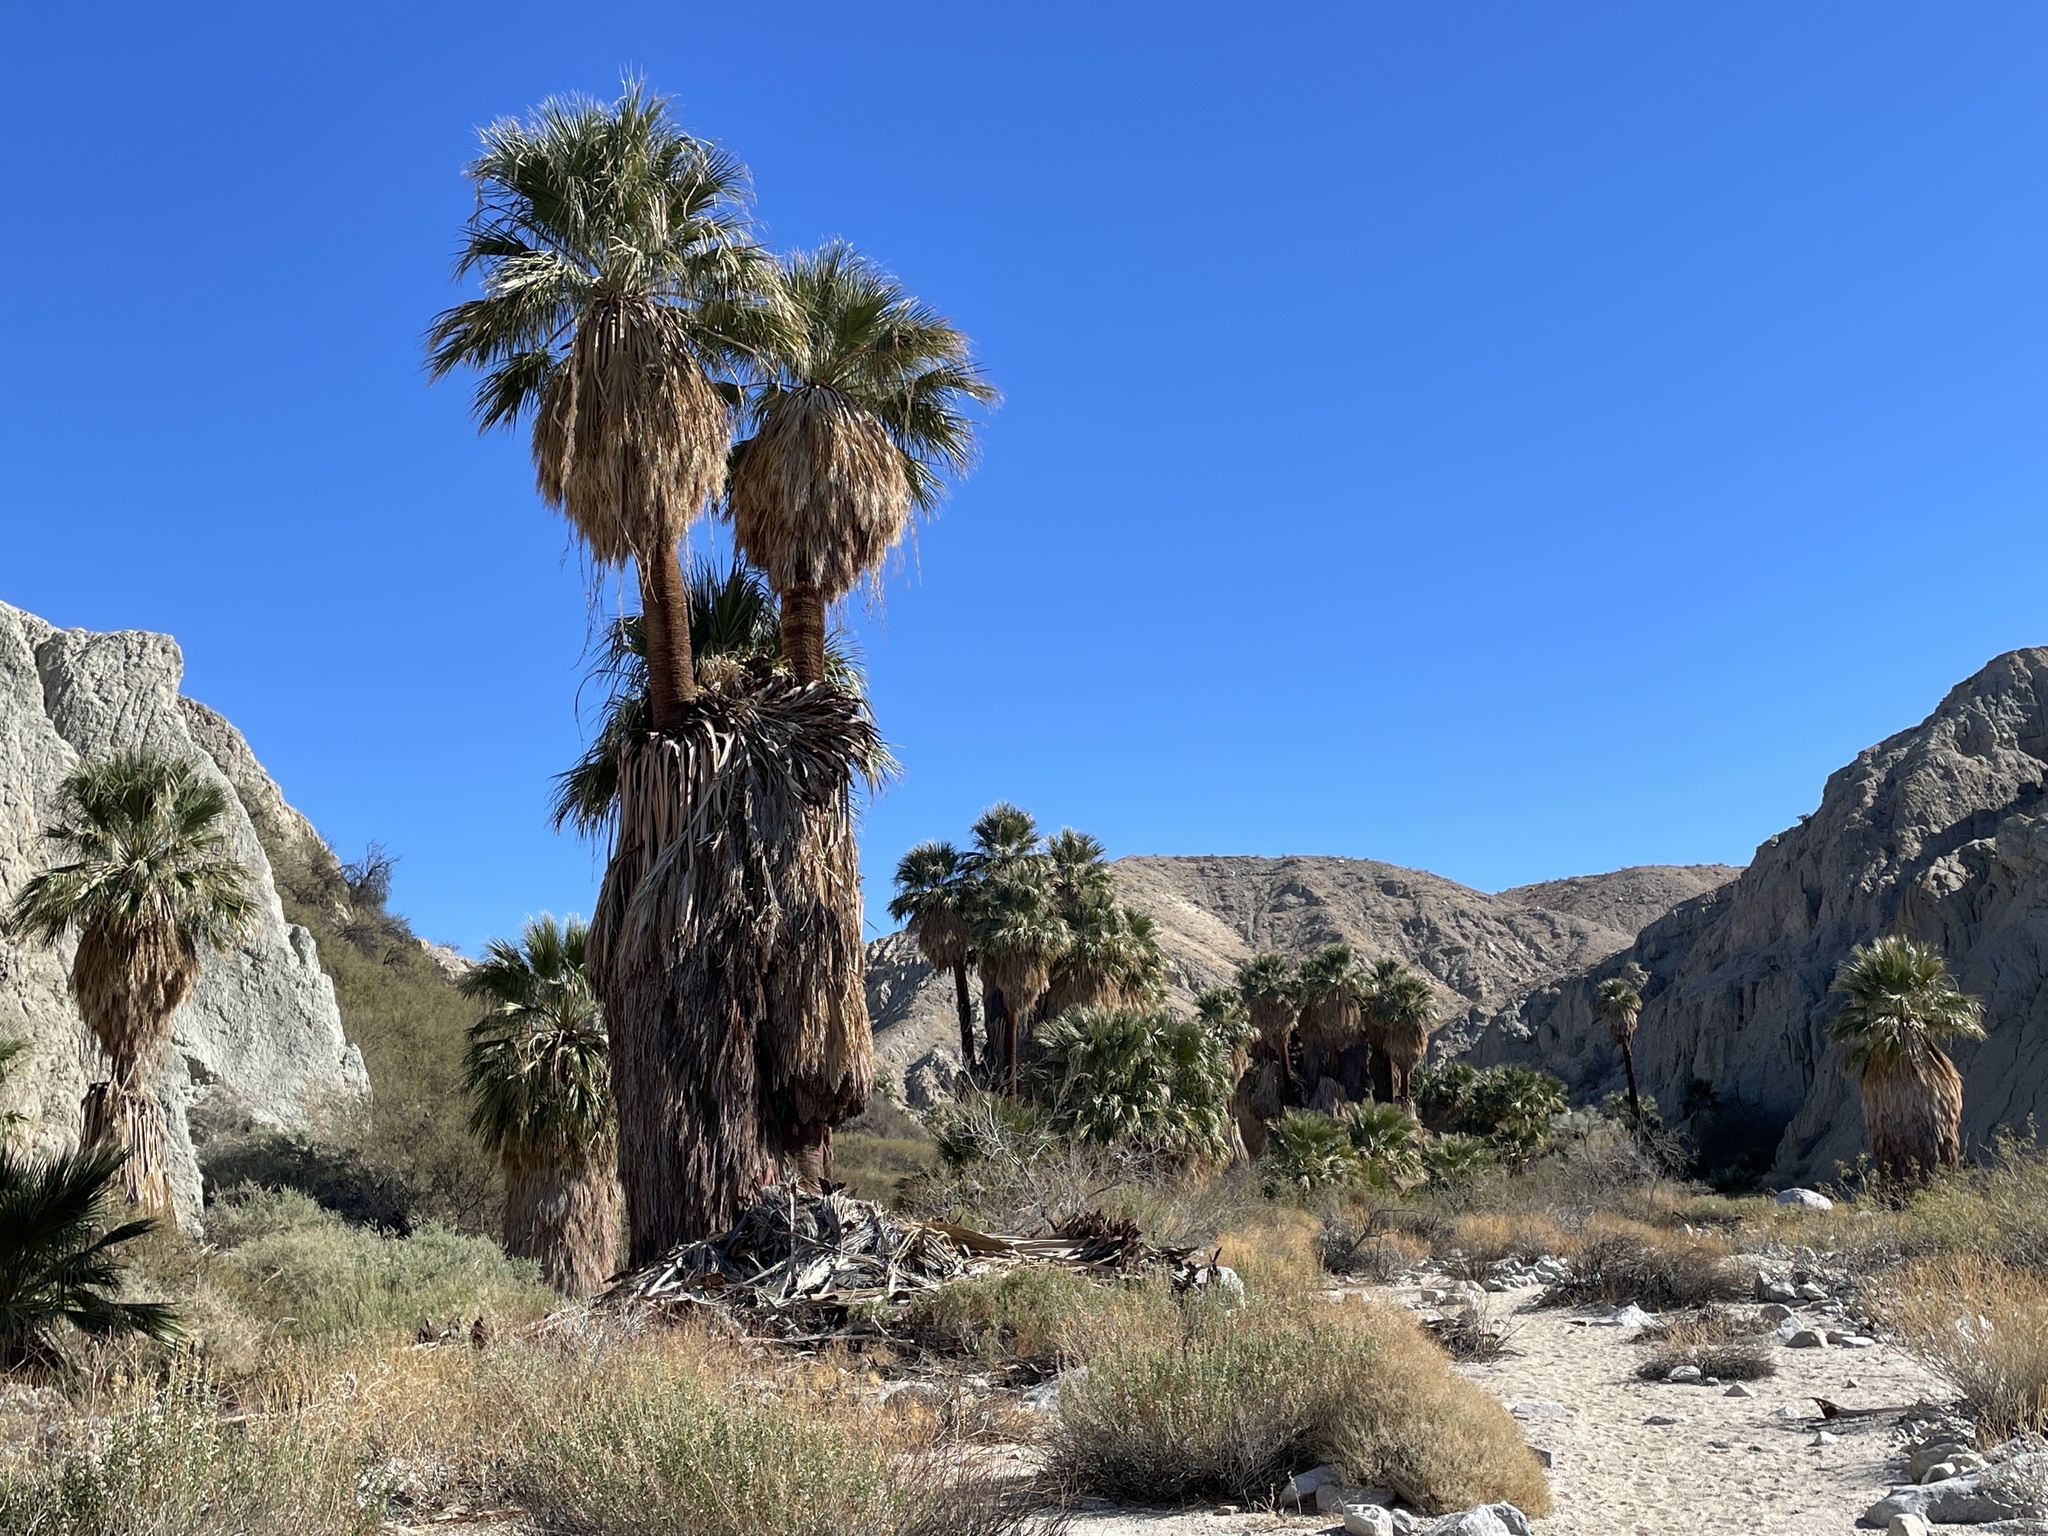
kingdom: Plantae
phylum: Tracheophyta
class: Liliopsida
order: Arecales
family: Arecaceae
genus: Washingtonia
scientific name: Washingtonia filifera
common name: California fan palm
